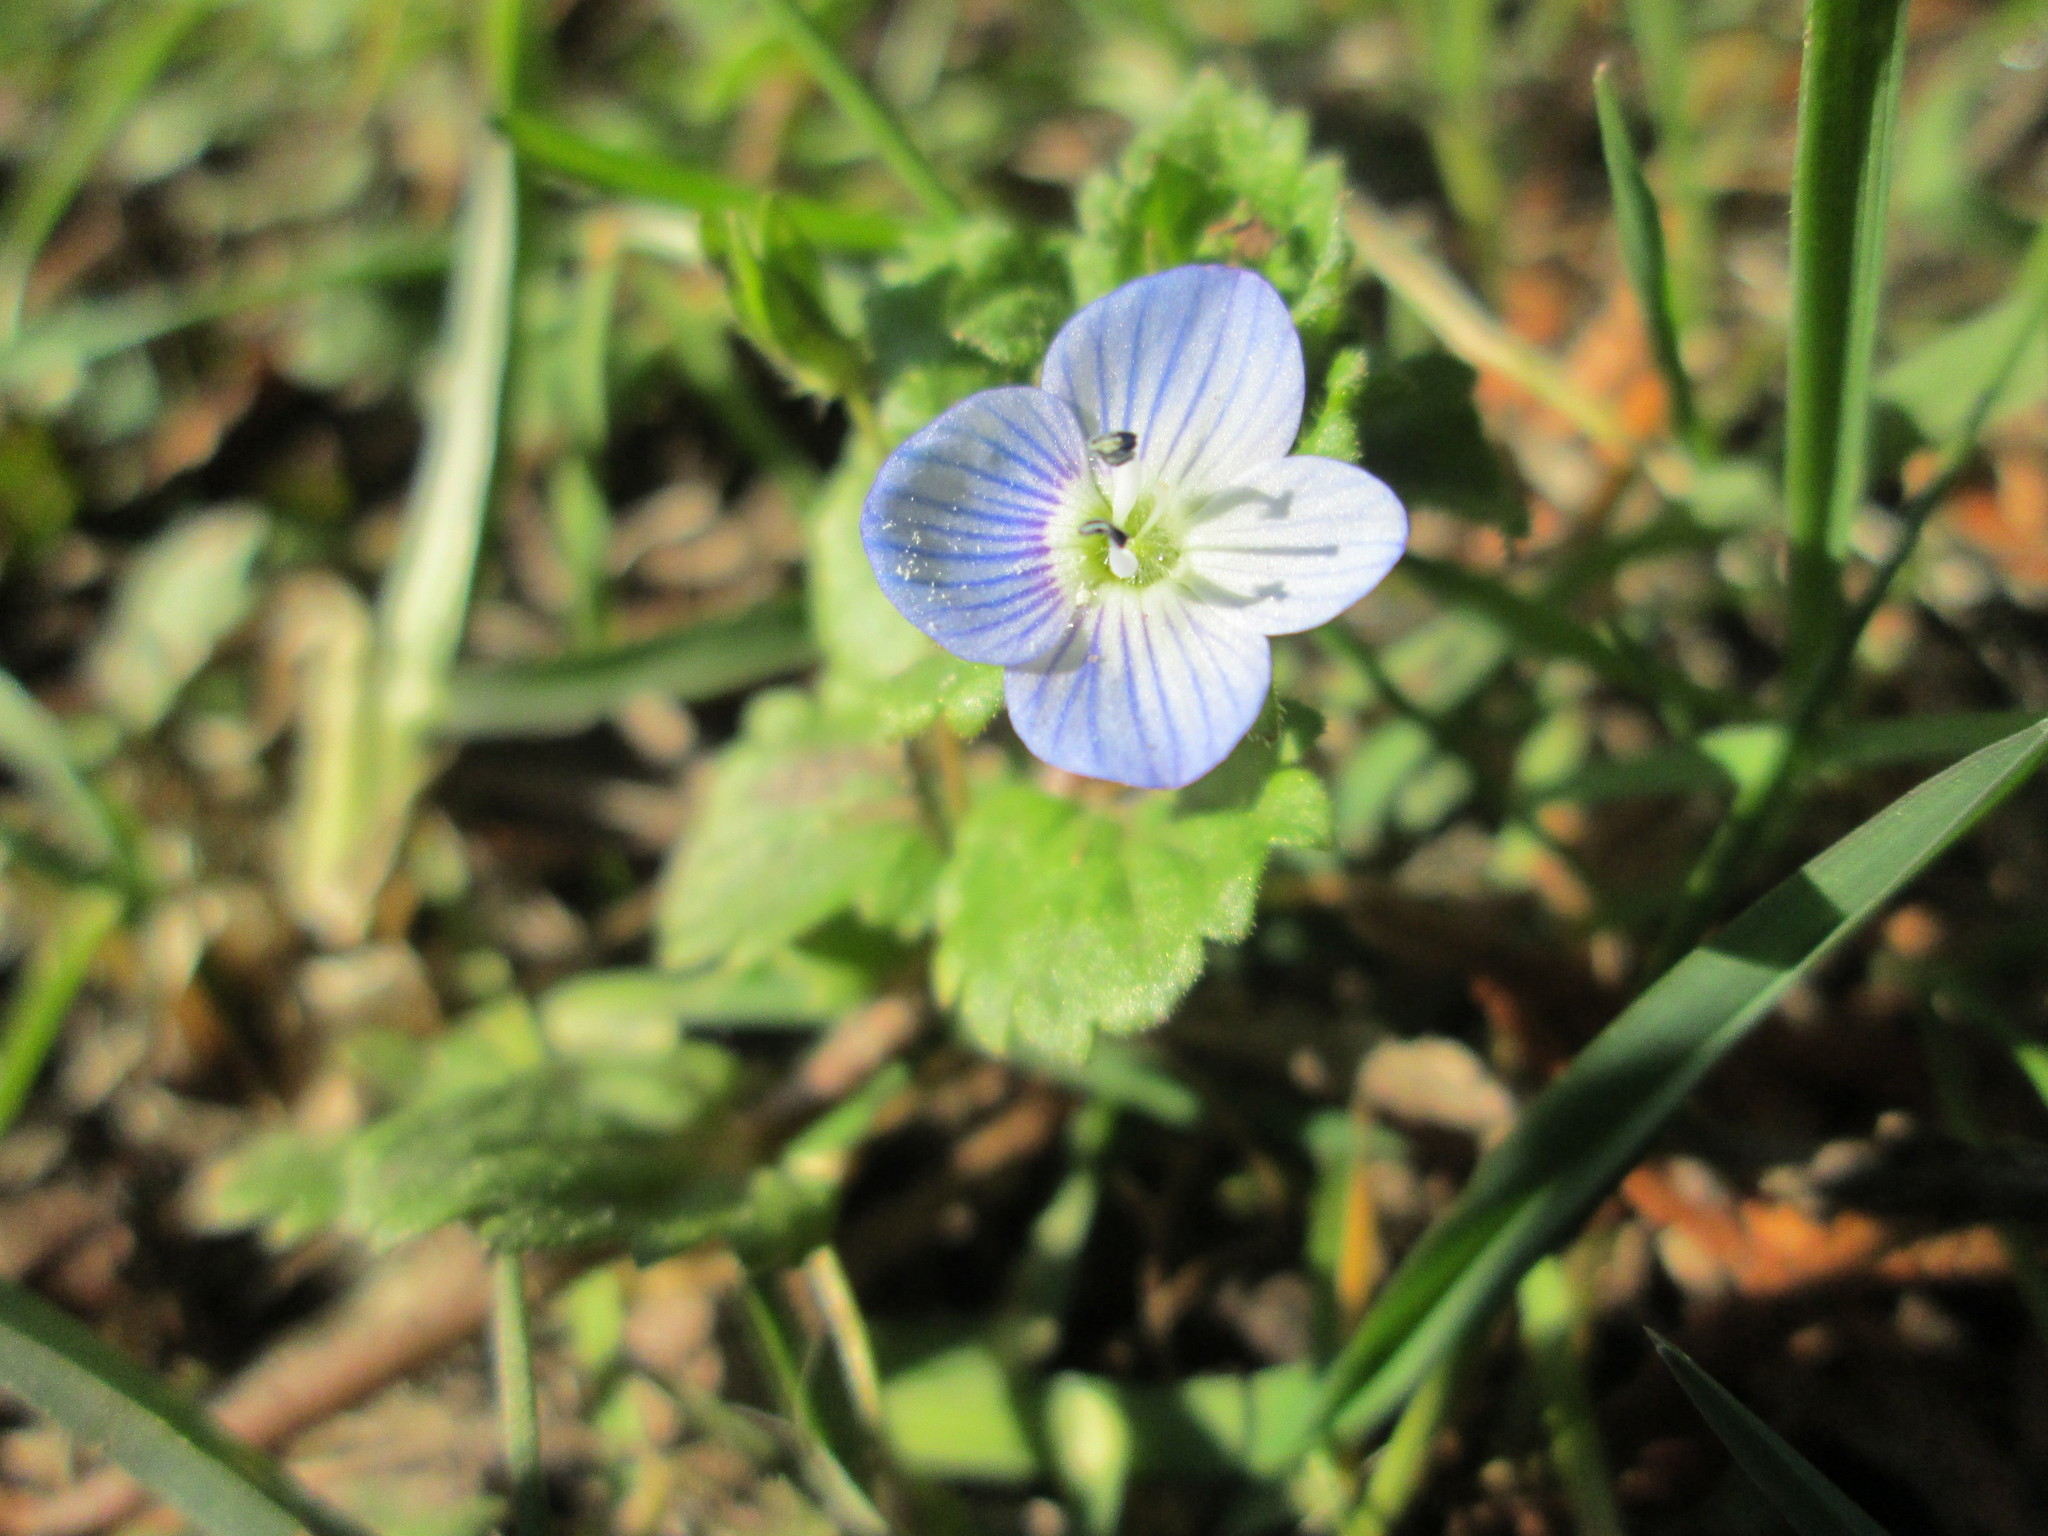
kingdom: Plantae
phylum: Tracheophyta
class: Magnoliopsida
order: Lamiales
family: Plantaginaceae
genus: Veronica
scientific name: Veronica persica
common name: Common field-speedwell
